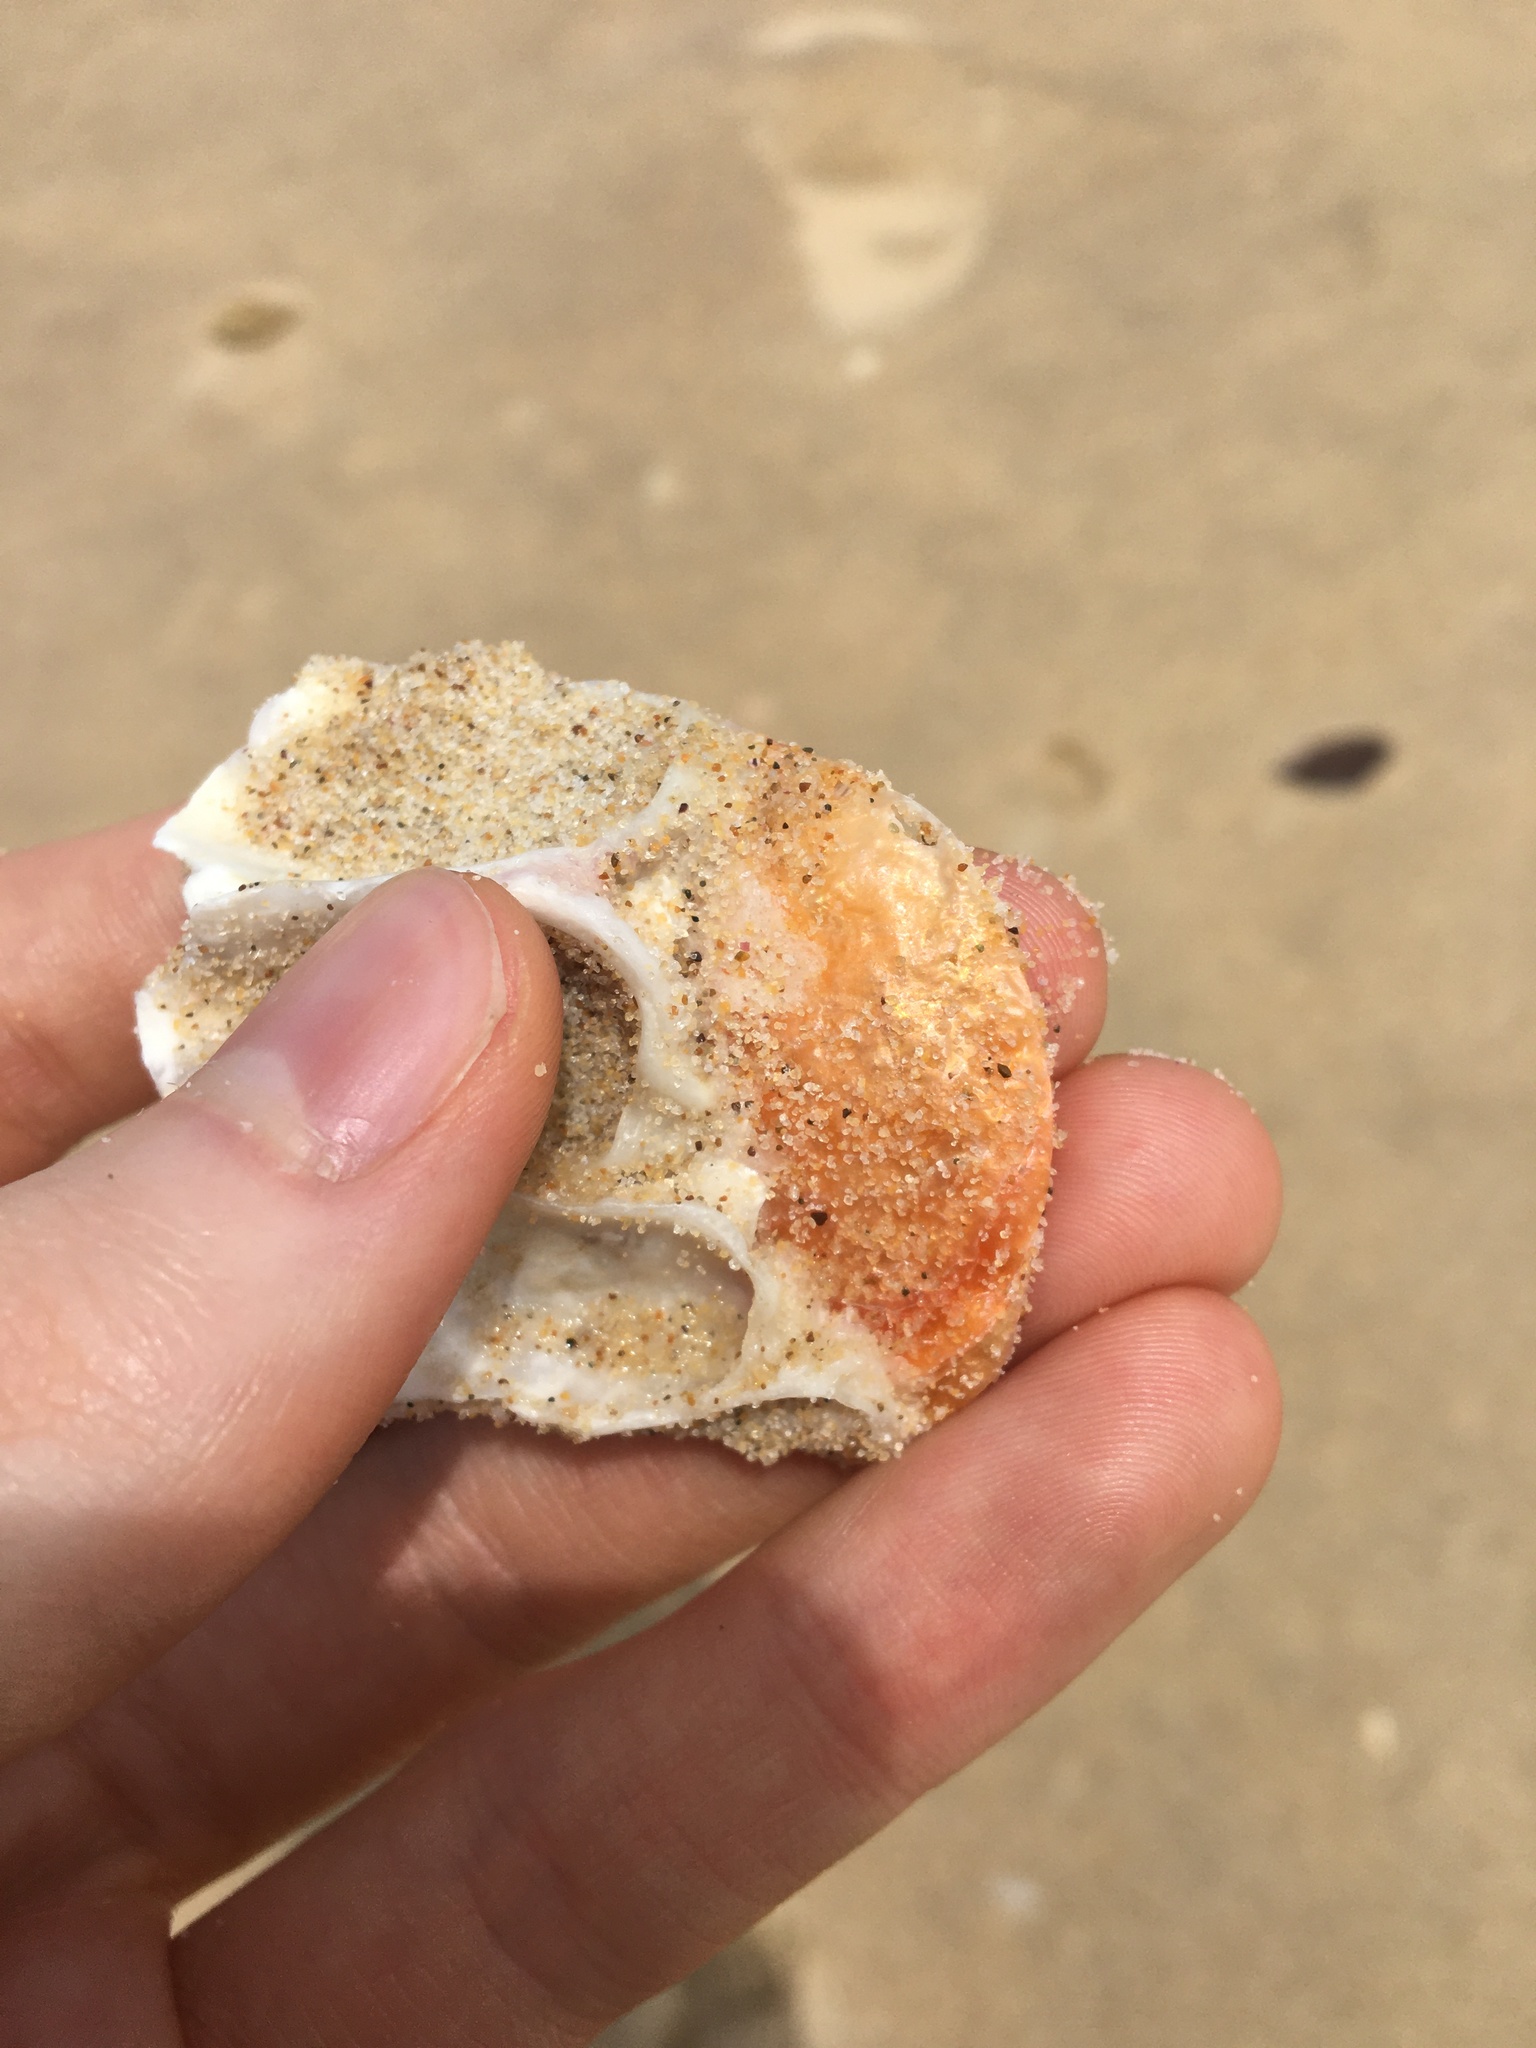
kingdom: Animalia
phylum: Mollusca
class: Bivalvia
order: Pectinida
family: Anomiidae
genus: Anomia
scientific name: Anomia trigonopsis
